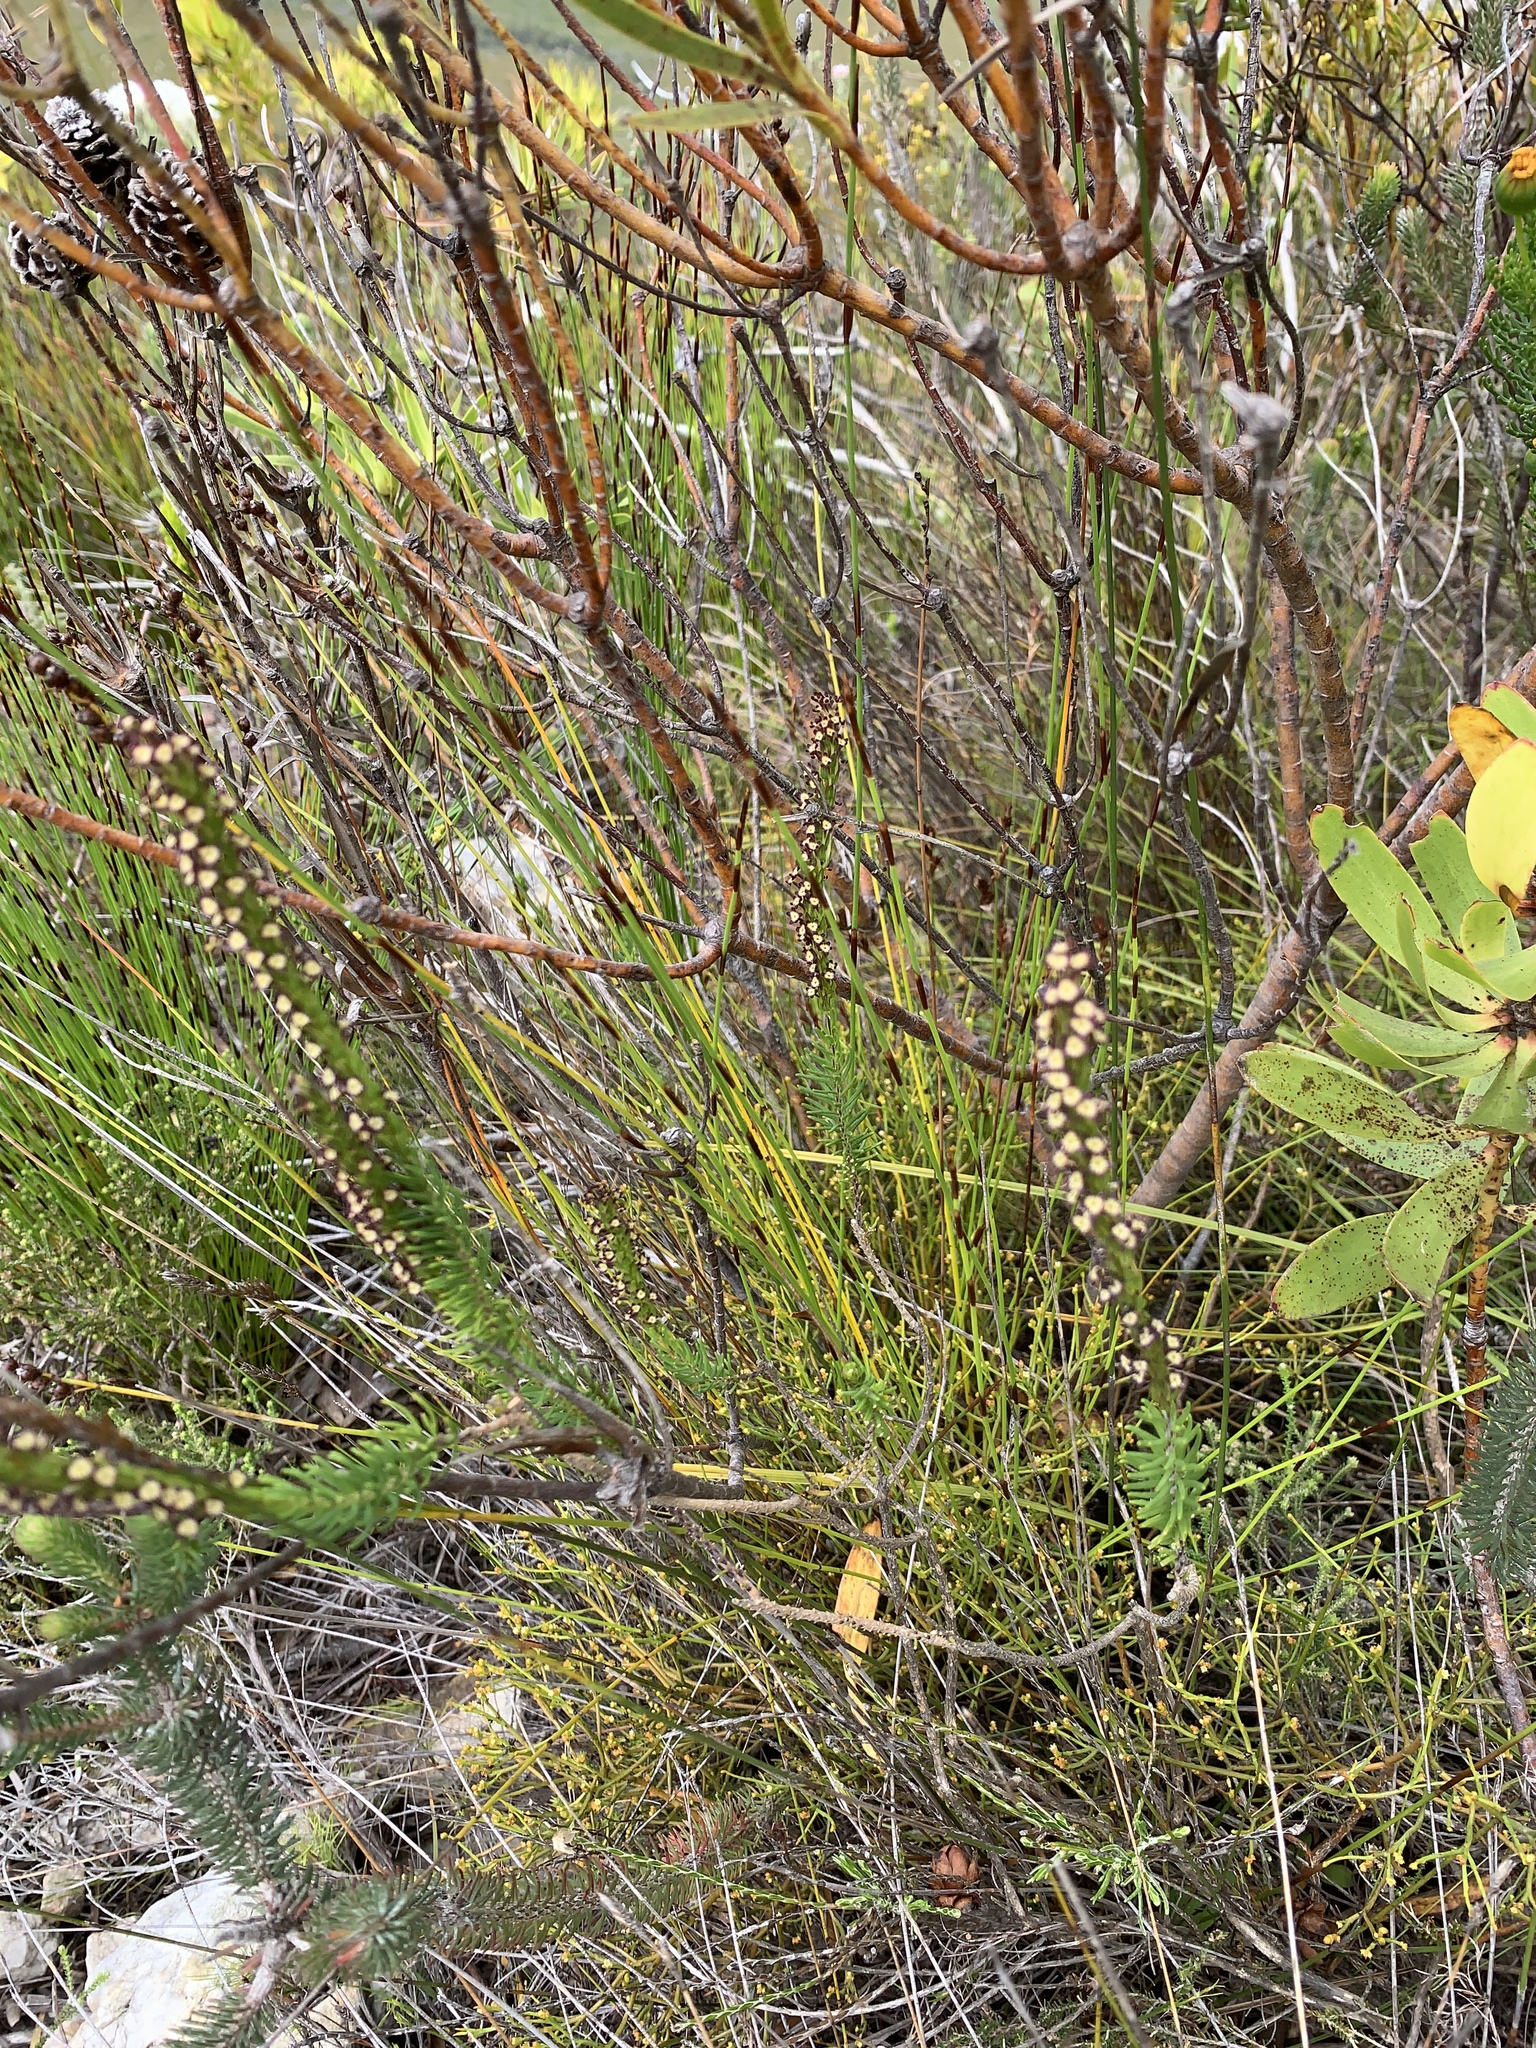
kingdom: Plantae
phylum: Tracheophyta
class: Magnoliopsida
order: Lamiales
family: Scrophulariaceae
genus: Microdon
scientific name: Microdon dubius
